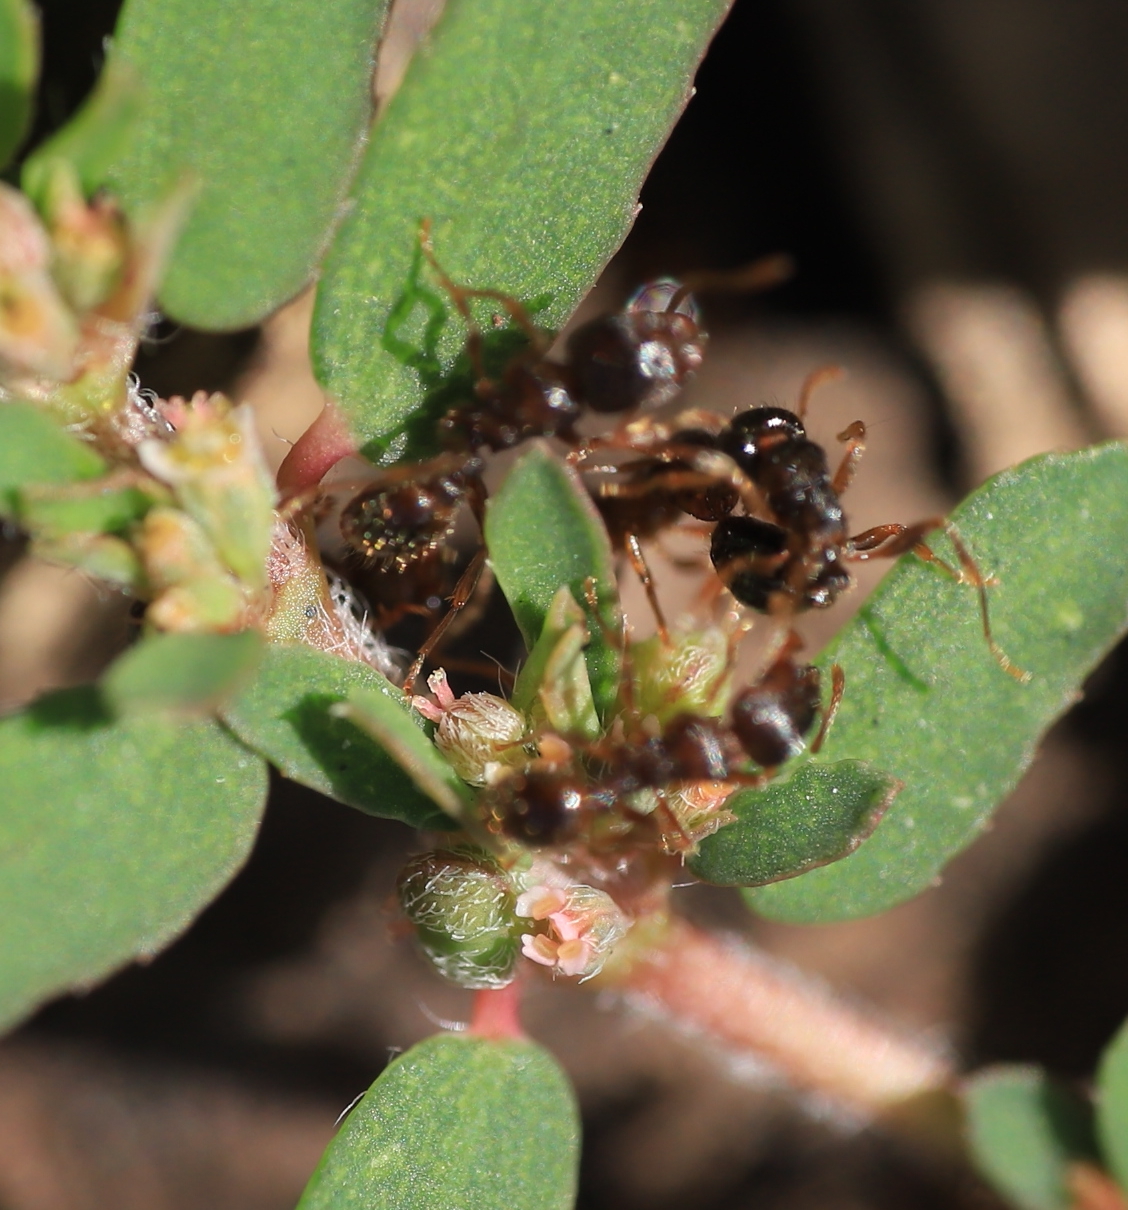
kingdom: Animalia
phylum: Arthropoda
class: Insecta
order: Hymenoptera
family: Formicidae
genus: Tetramorium
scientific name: Tetramorium
